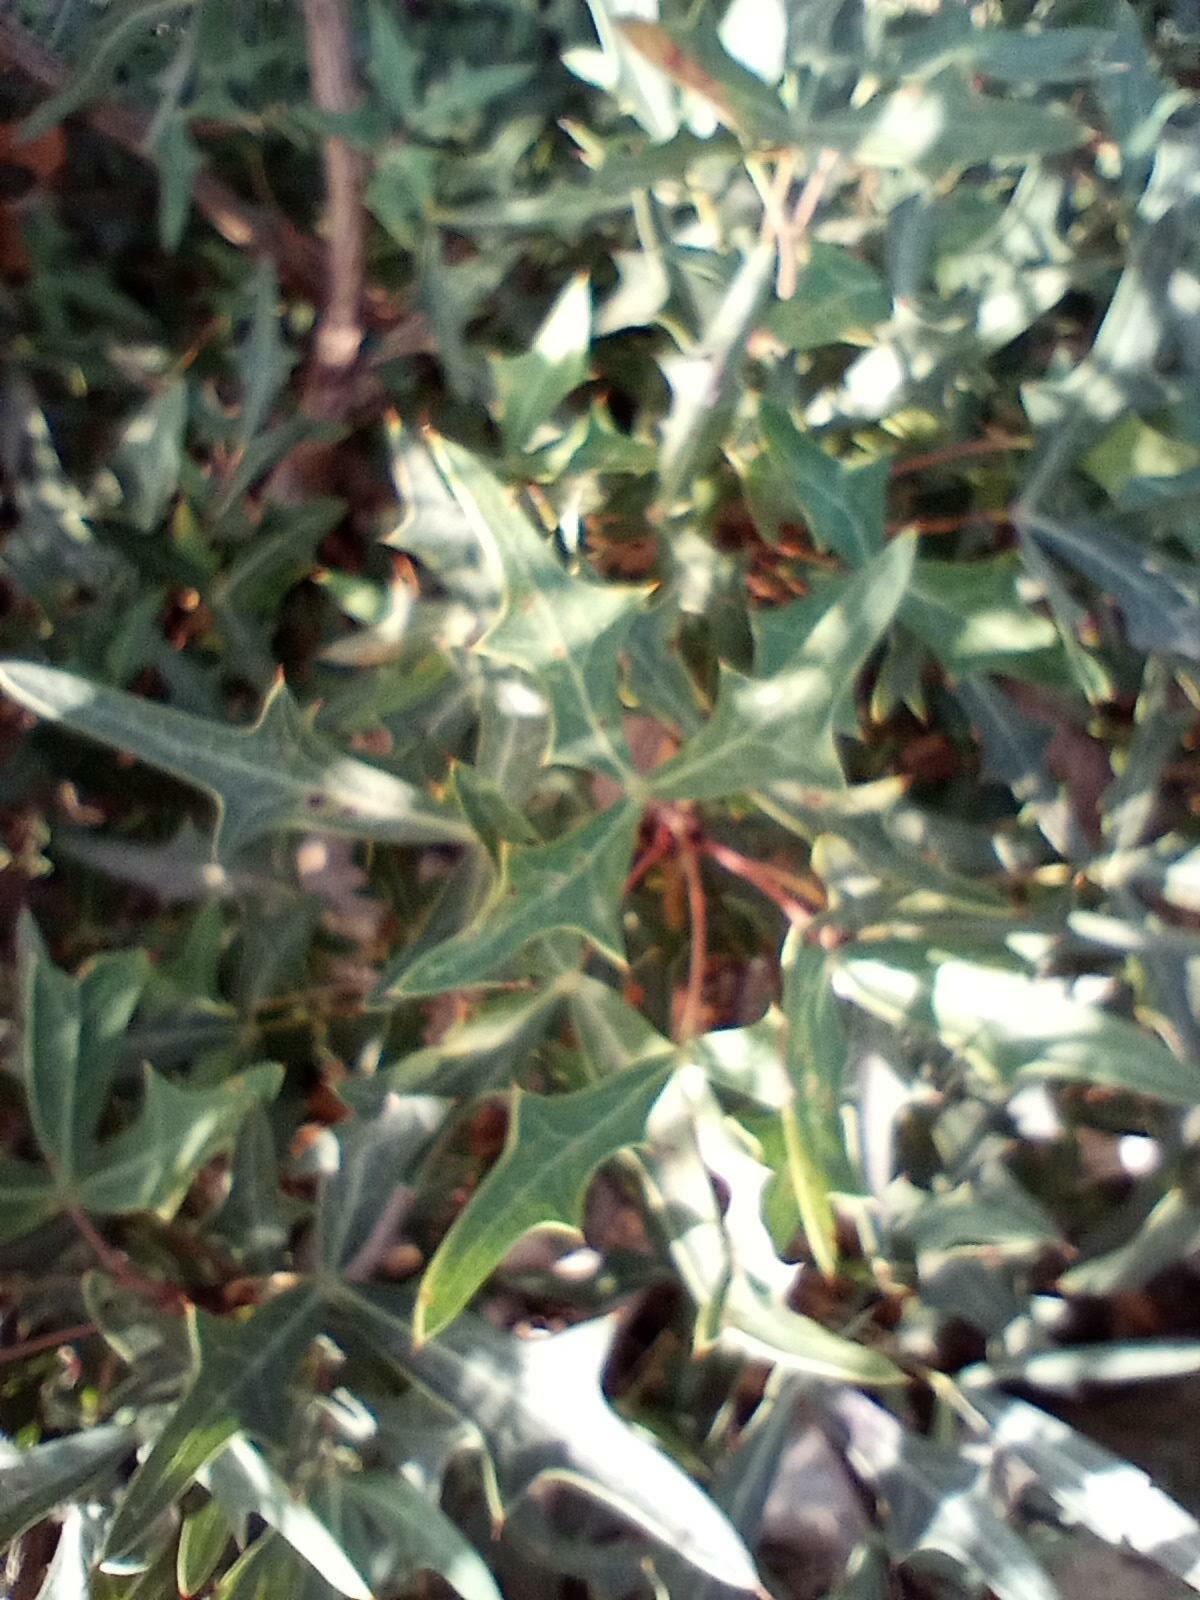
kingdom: Plantae
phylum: Tracheophyta
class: Magnoliopsida
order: Ranunculales
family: Berberidaceae
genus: Alloberberis
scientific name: Alloberberis trifoliolata
